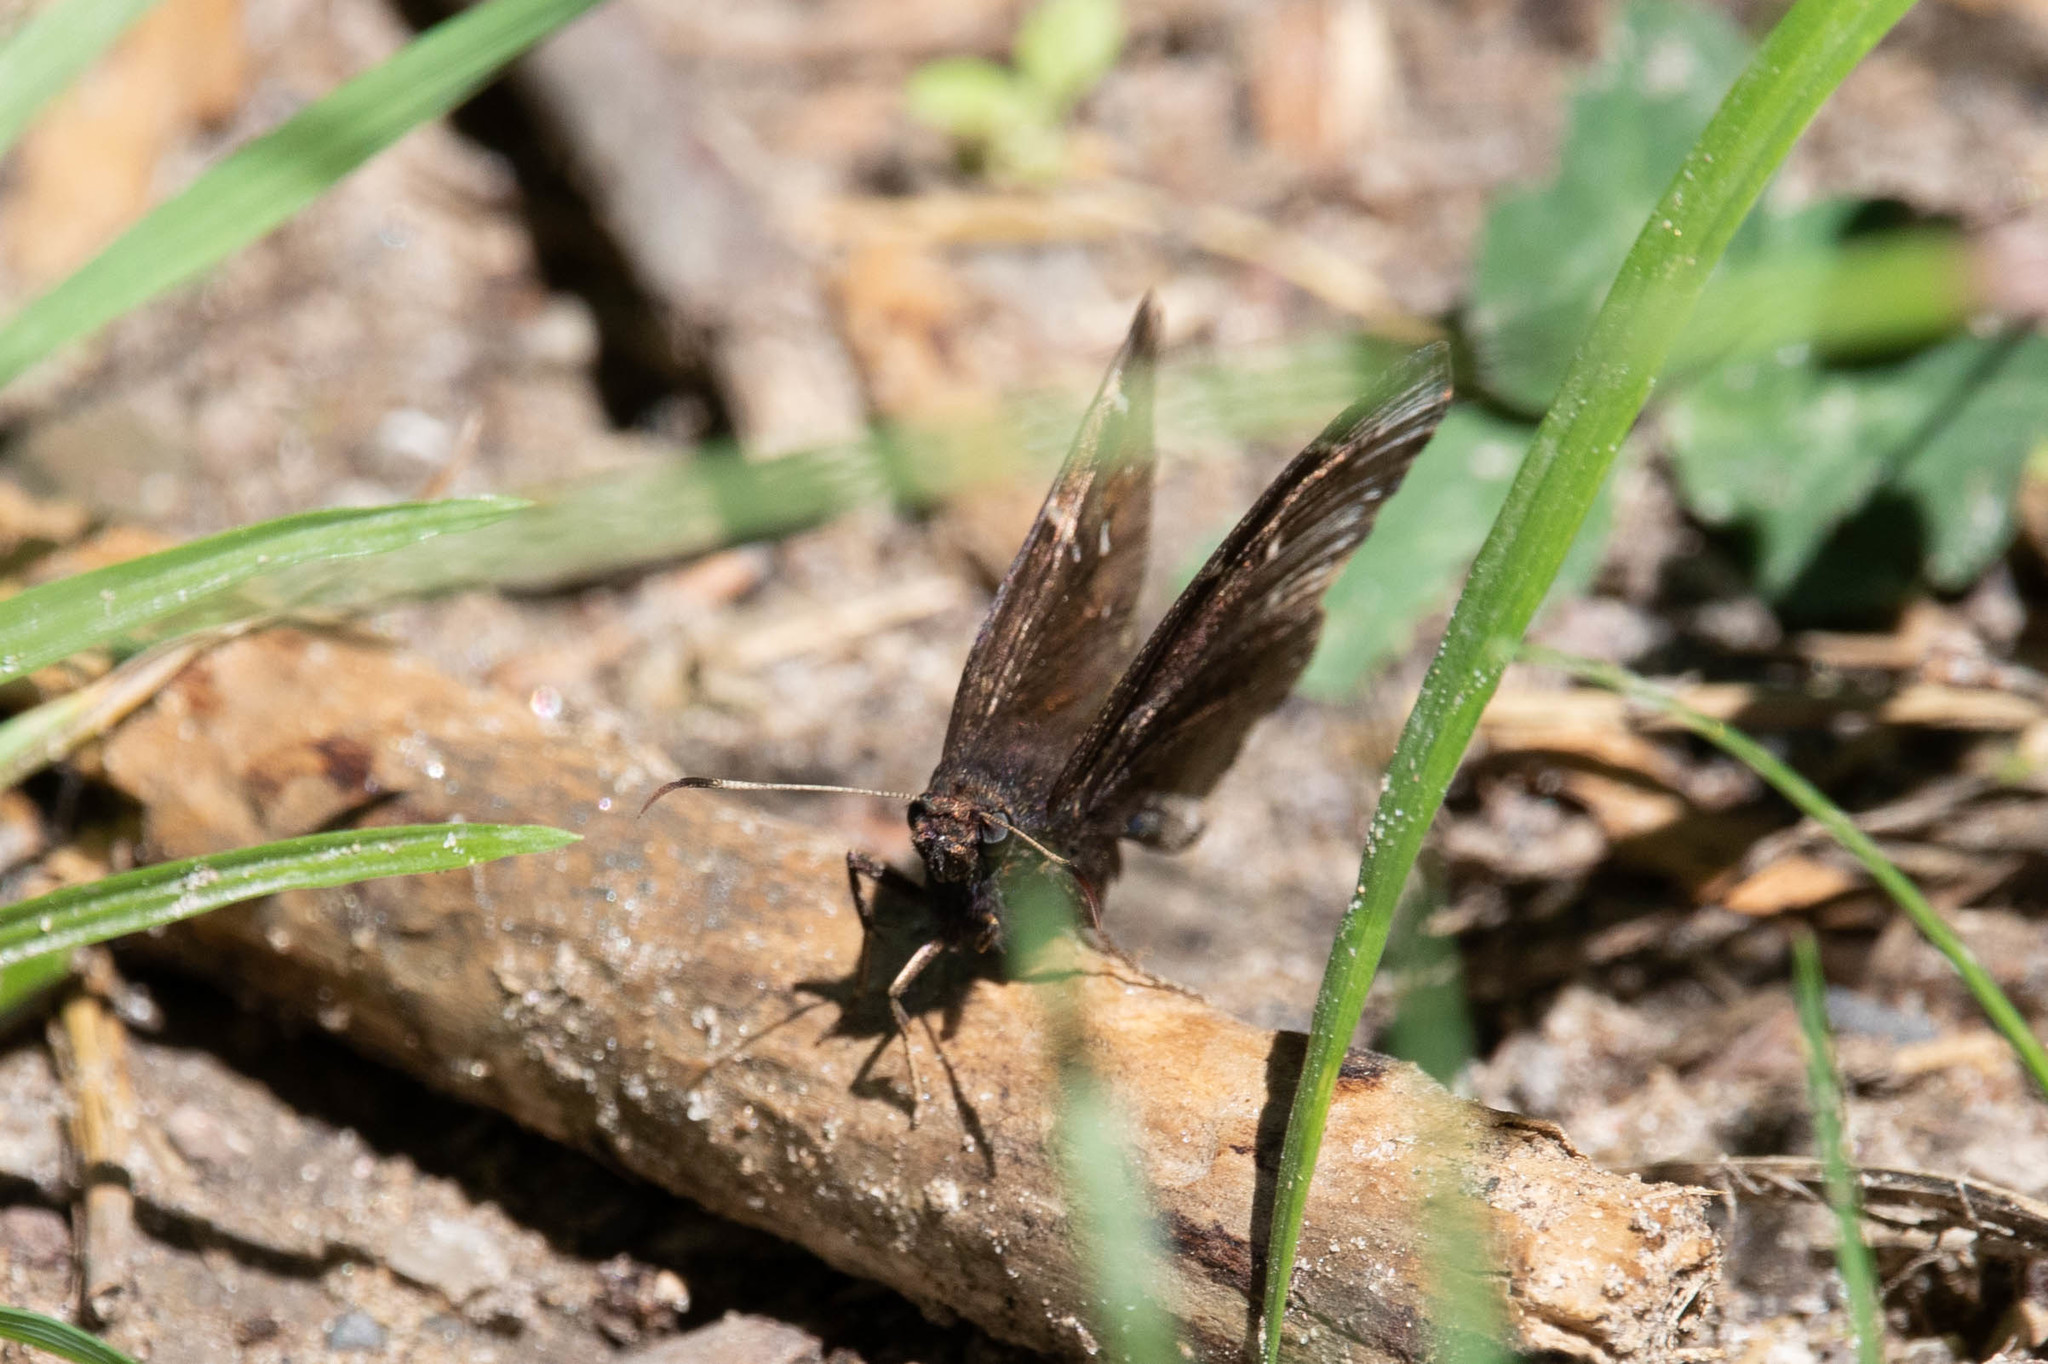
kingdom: Animalia
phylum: Arthropoda
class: Insecta
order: Lepidoptera
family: Hesperiidae
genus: Thorybes
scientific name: Thorybes pylades
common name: Northern cloudywing
